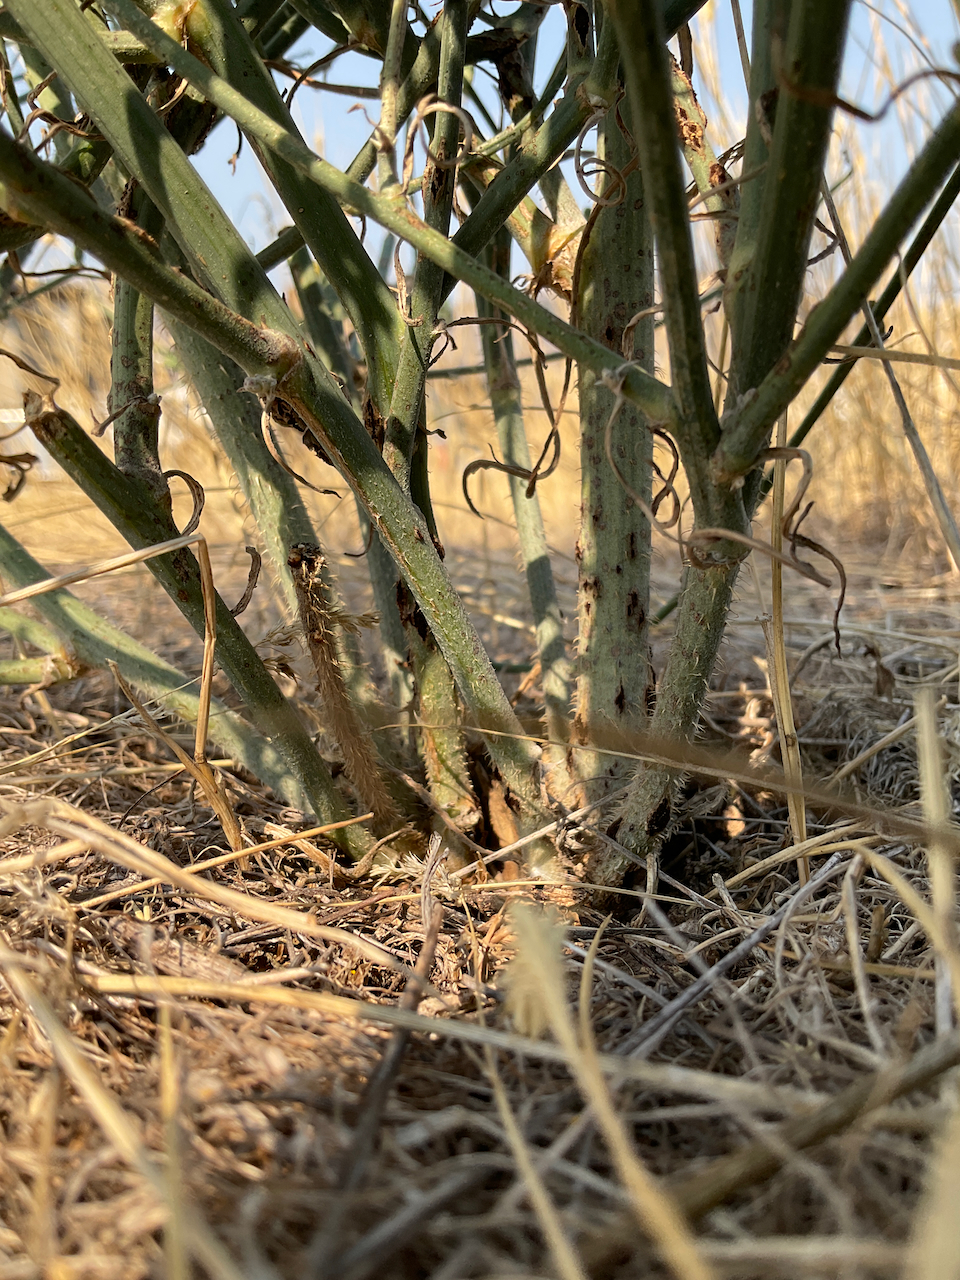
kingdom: Plantae
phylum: Tracheophyta
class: Magnoliopsida
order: Asterales
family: Asteraceae
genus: Chondrilla
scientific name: Chondrilla juncea
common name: Skeleton weed
